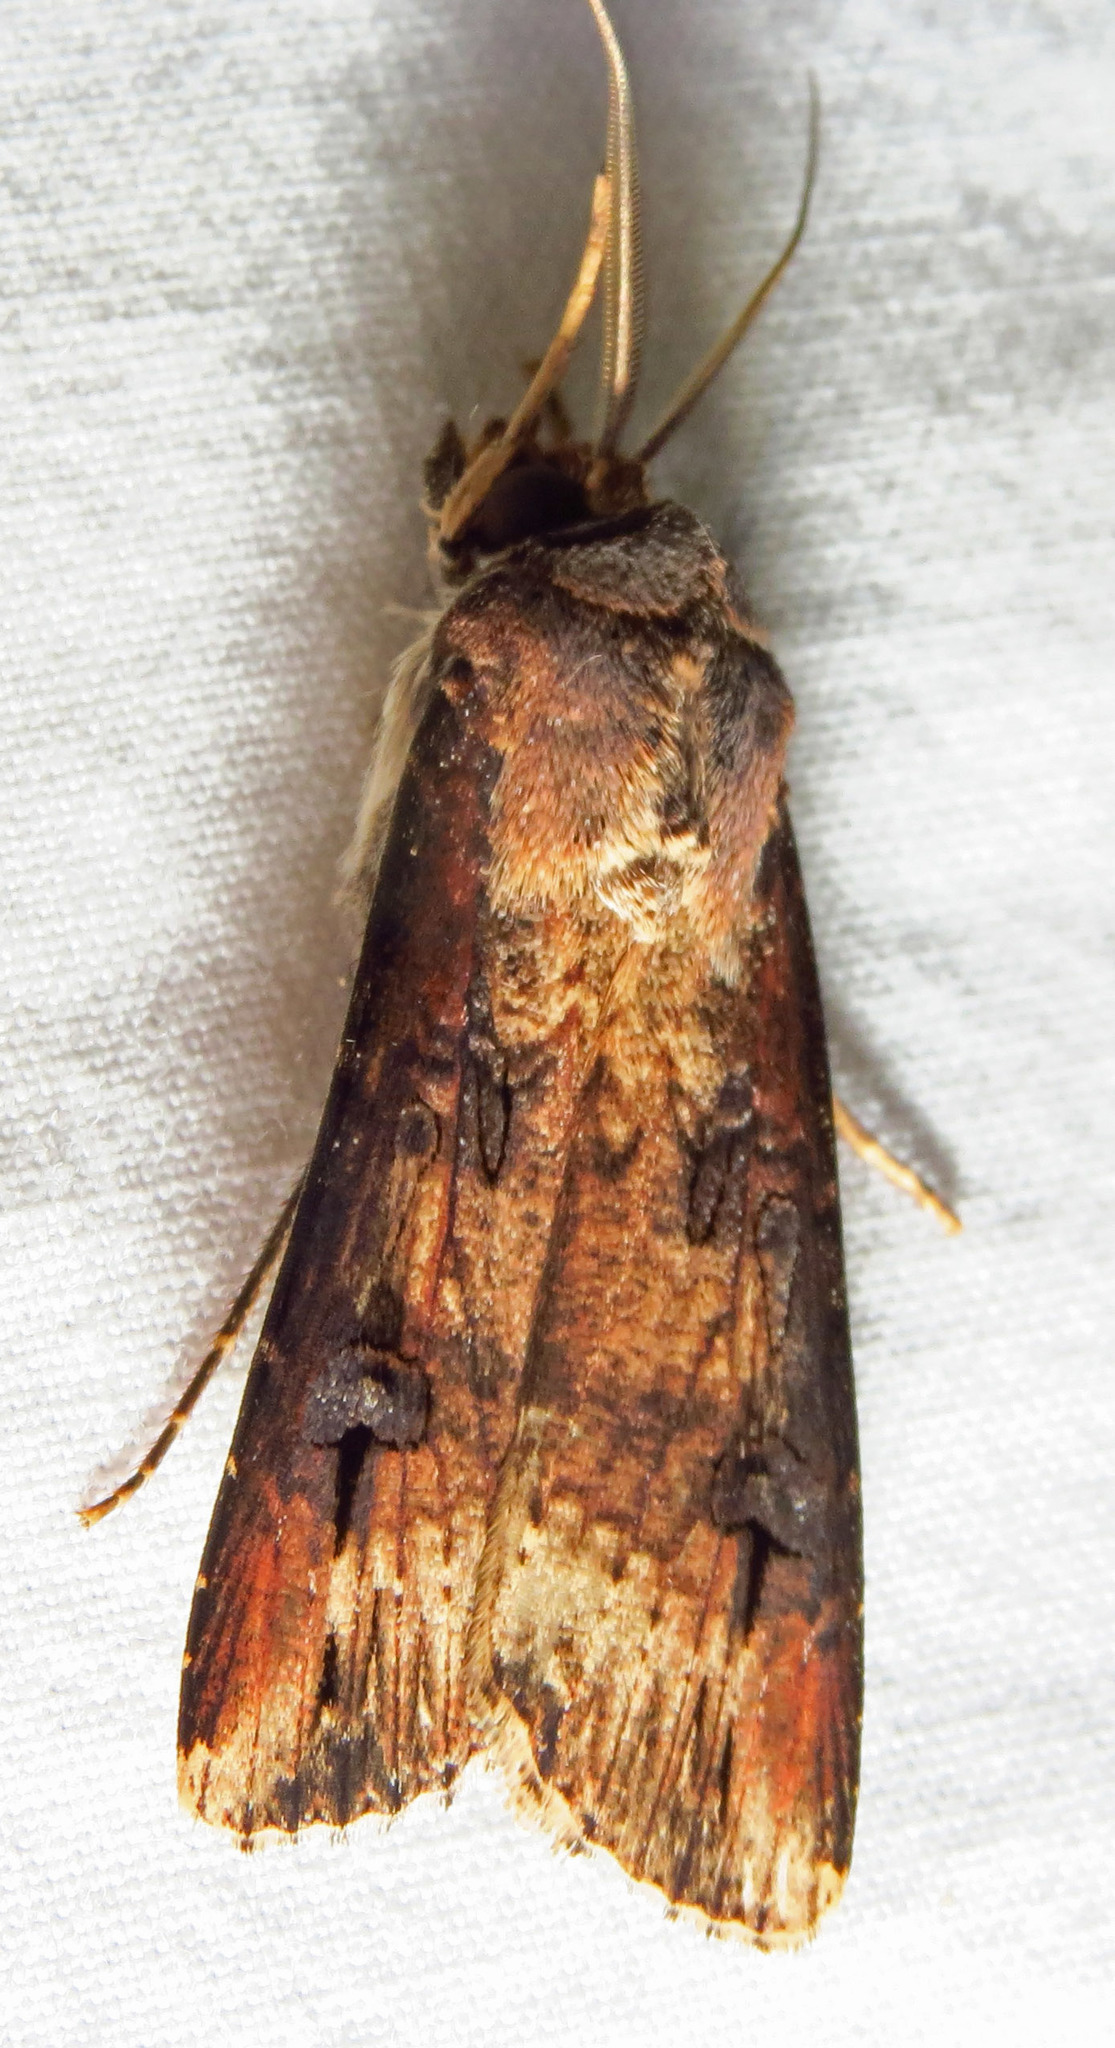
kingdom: Animalia
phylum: Arthropoda
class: Insecta
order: Lepidoptera
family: Noctuidae
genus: Agrotis
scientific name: Agrotis ipsilon
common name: Dark sword-grass
